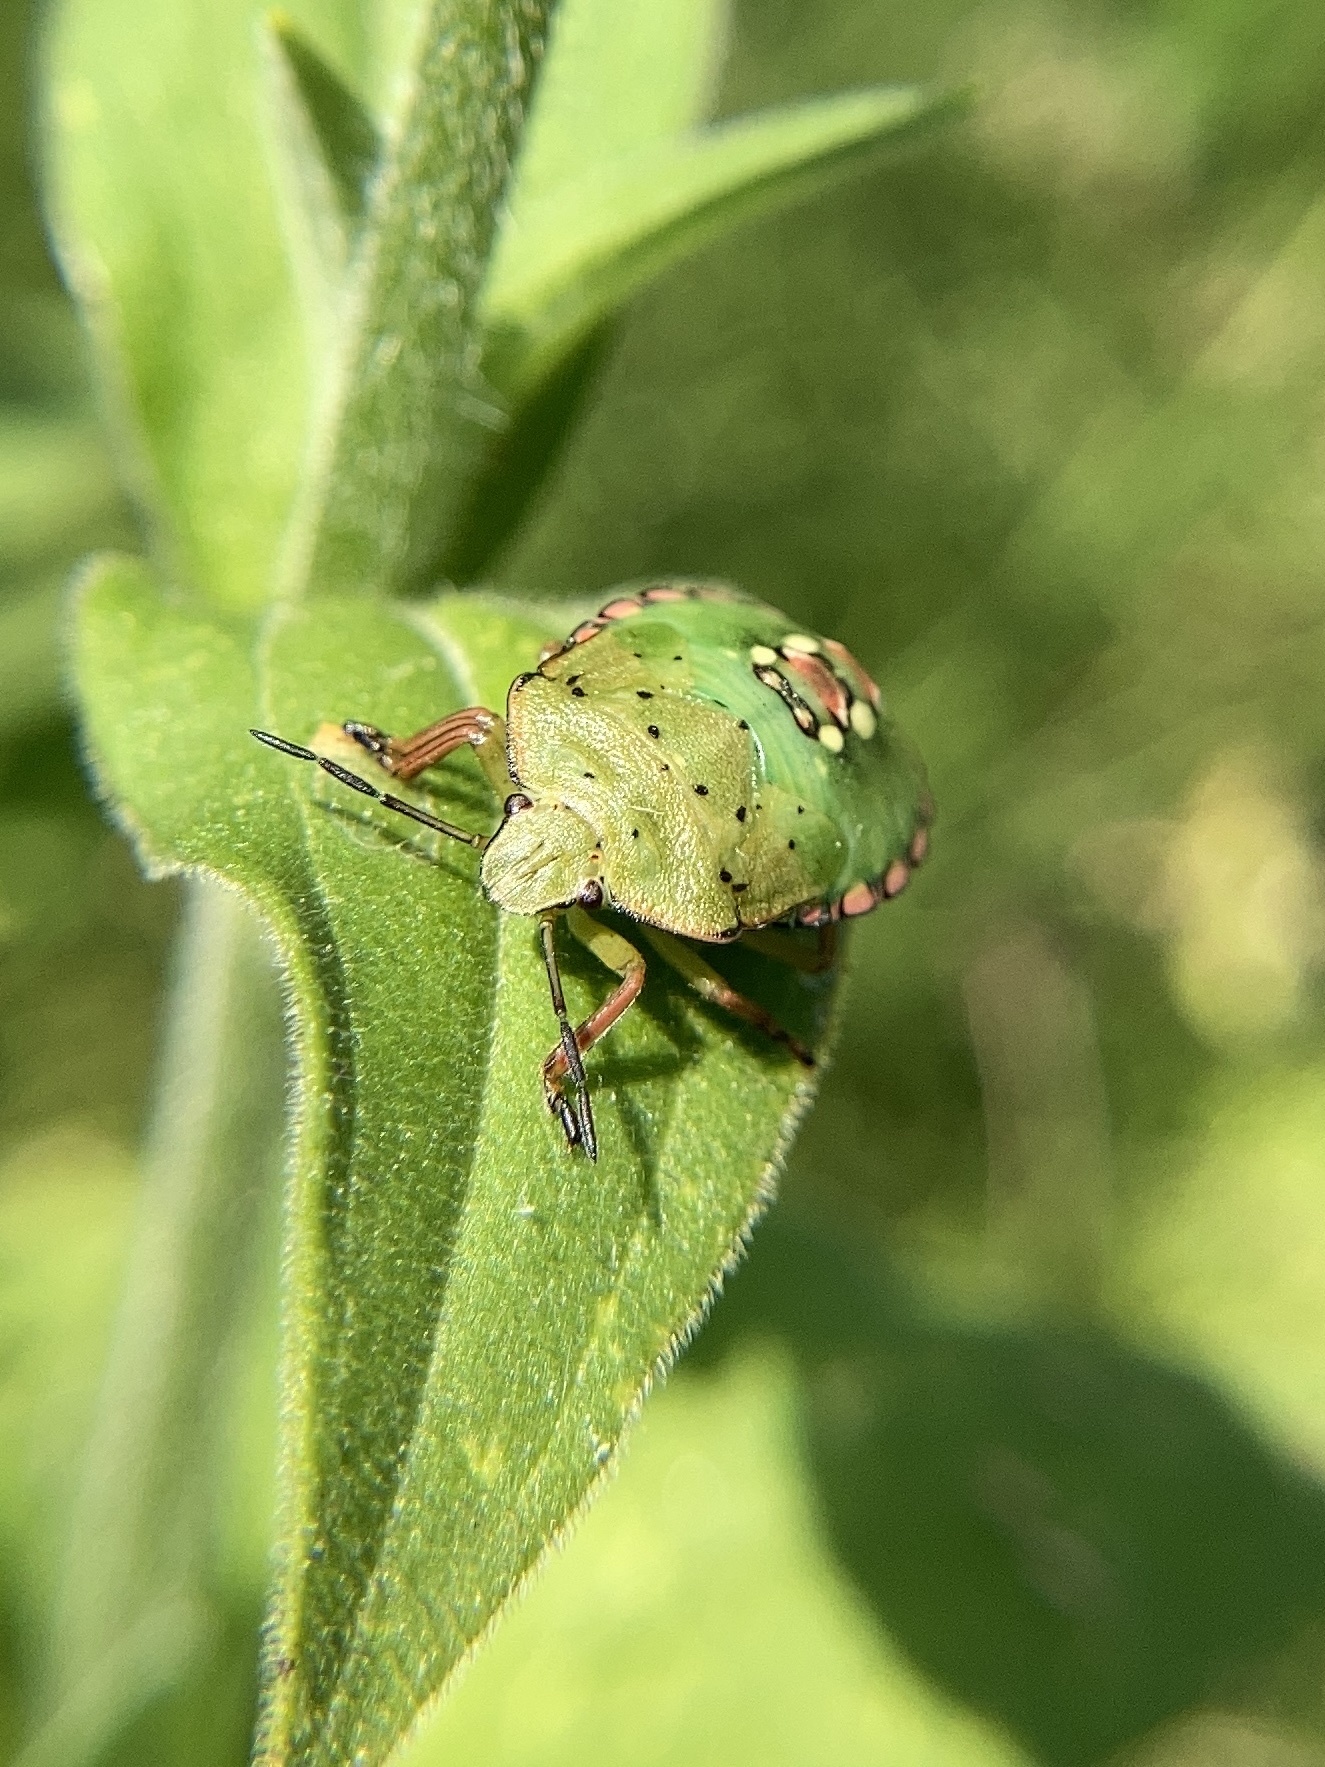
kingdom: Animalia
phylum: Arthropoda
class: Insecta
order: Hemiptera
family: Pentatomidae
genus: Nezara
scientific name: Nezara viridula
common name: Southern green stink bug
